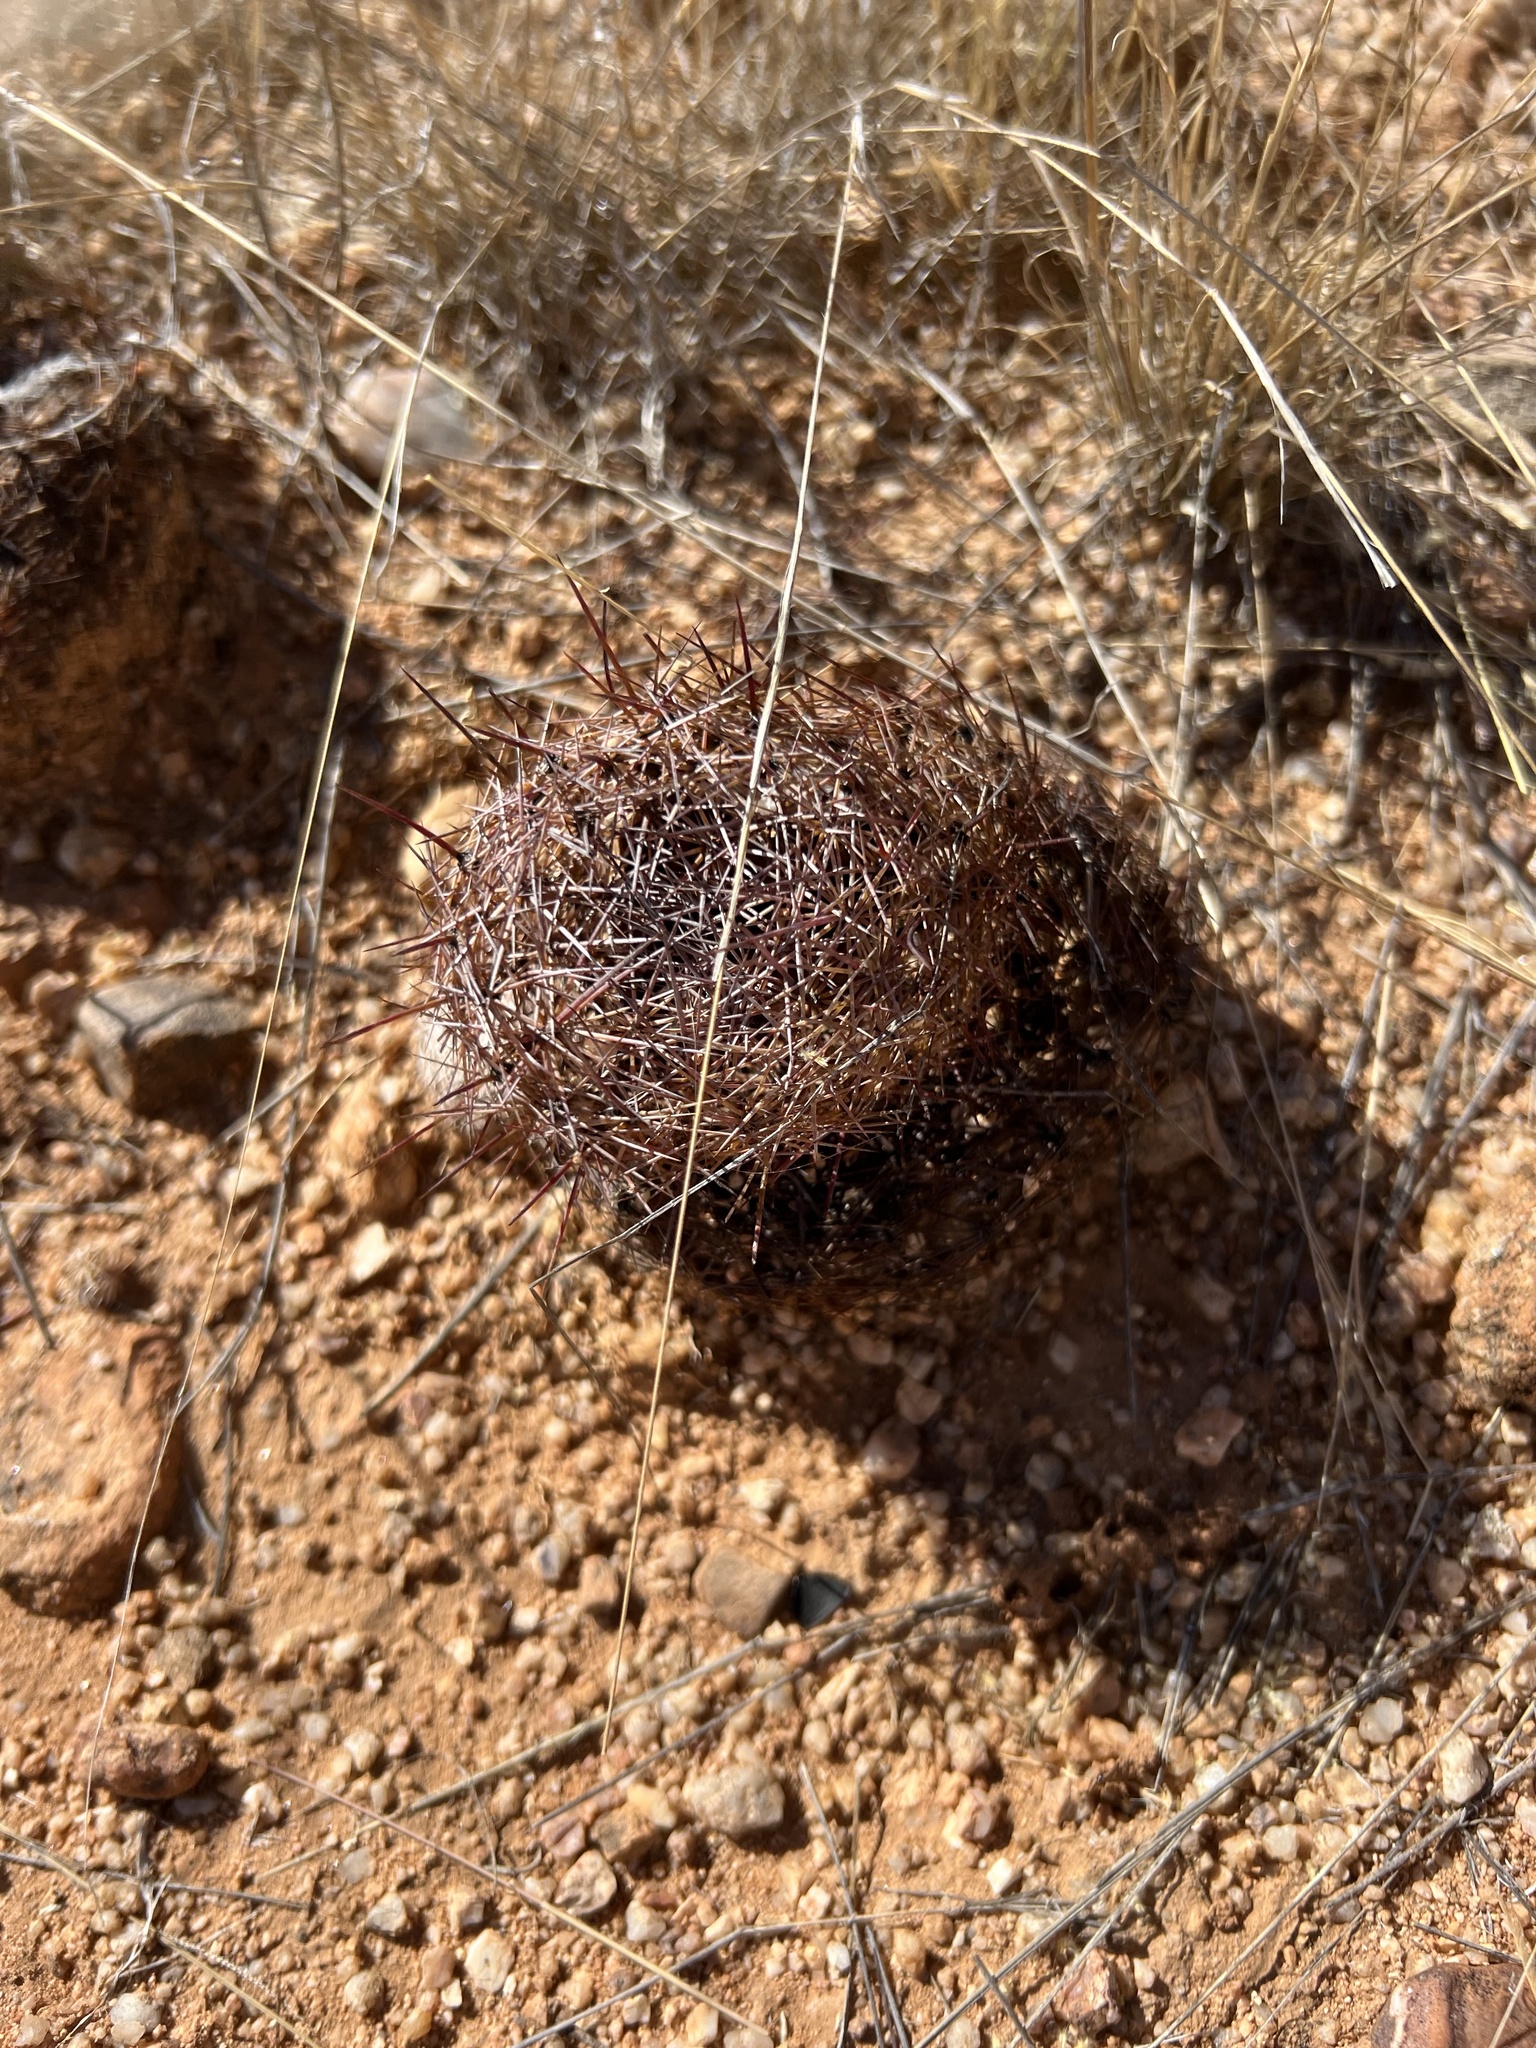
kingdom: Plantae
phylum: Tracheophyta
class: Magnoliopsida
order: Caryophyllales
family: Cactaceae
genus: Sclerocactus
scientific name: Sclerocactus johnsonii
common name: Eight-spine fishhook cactus
